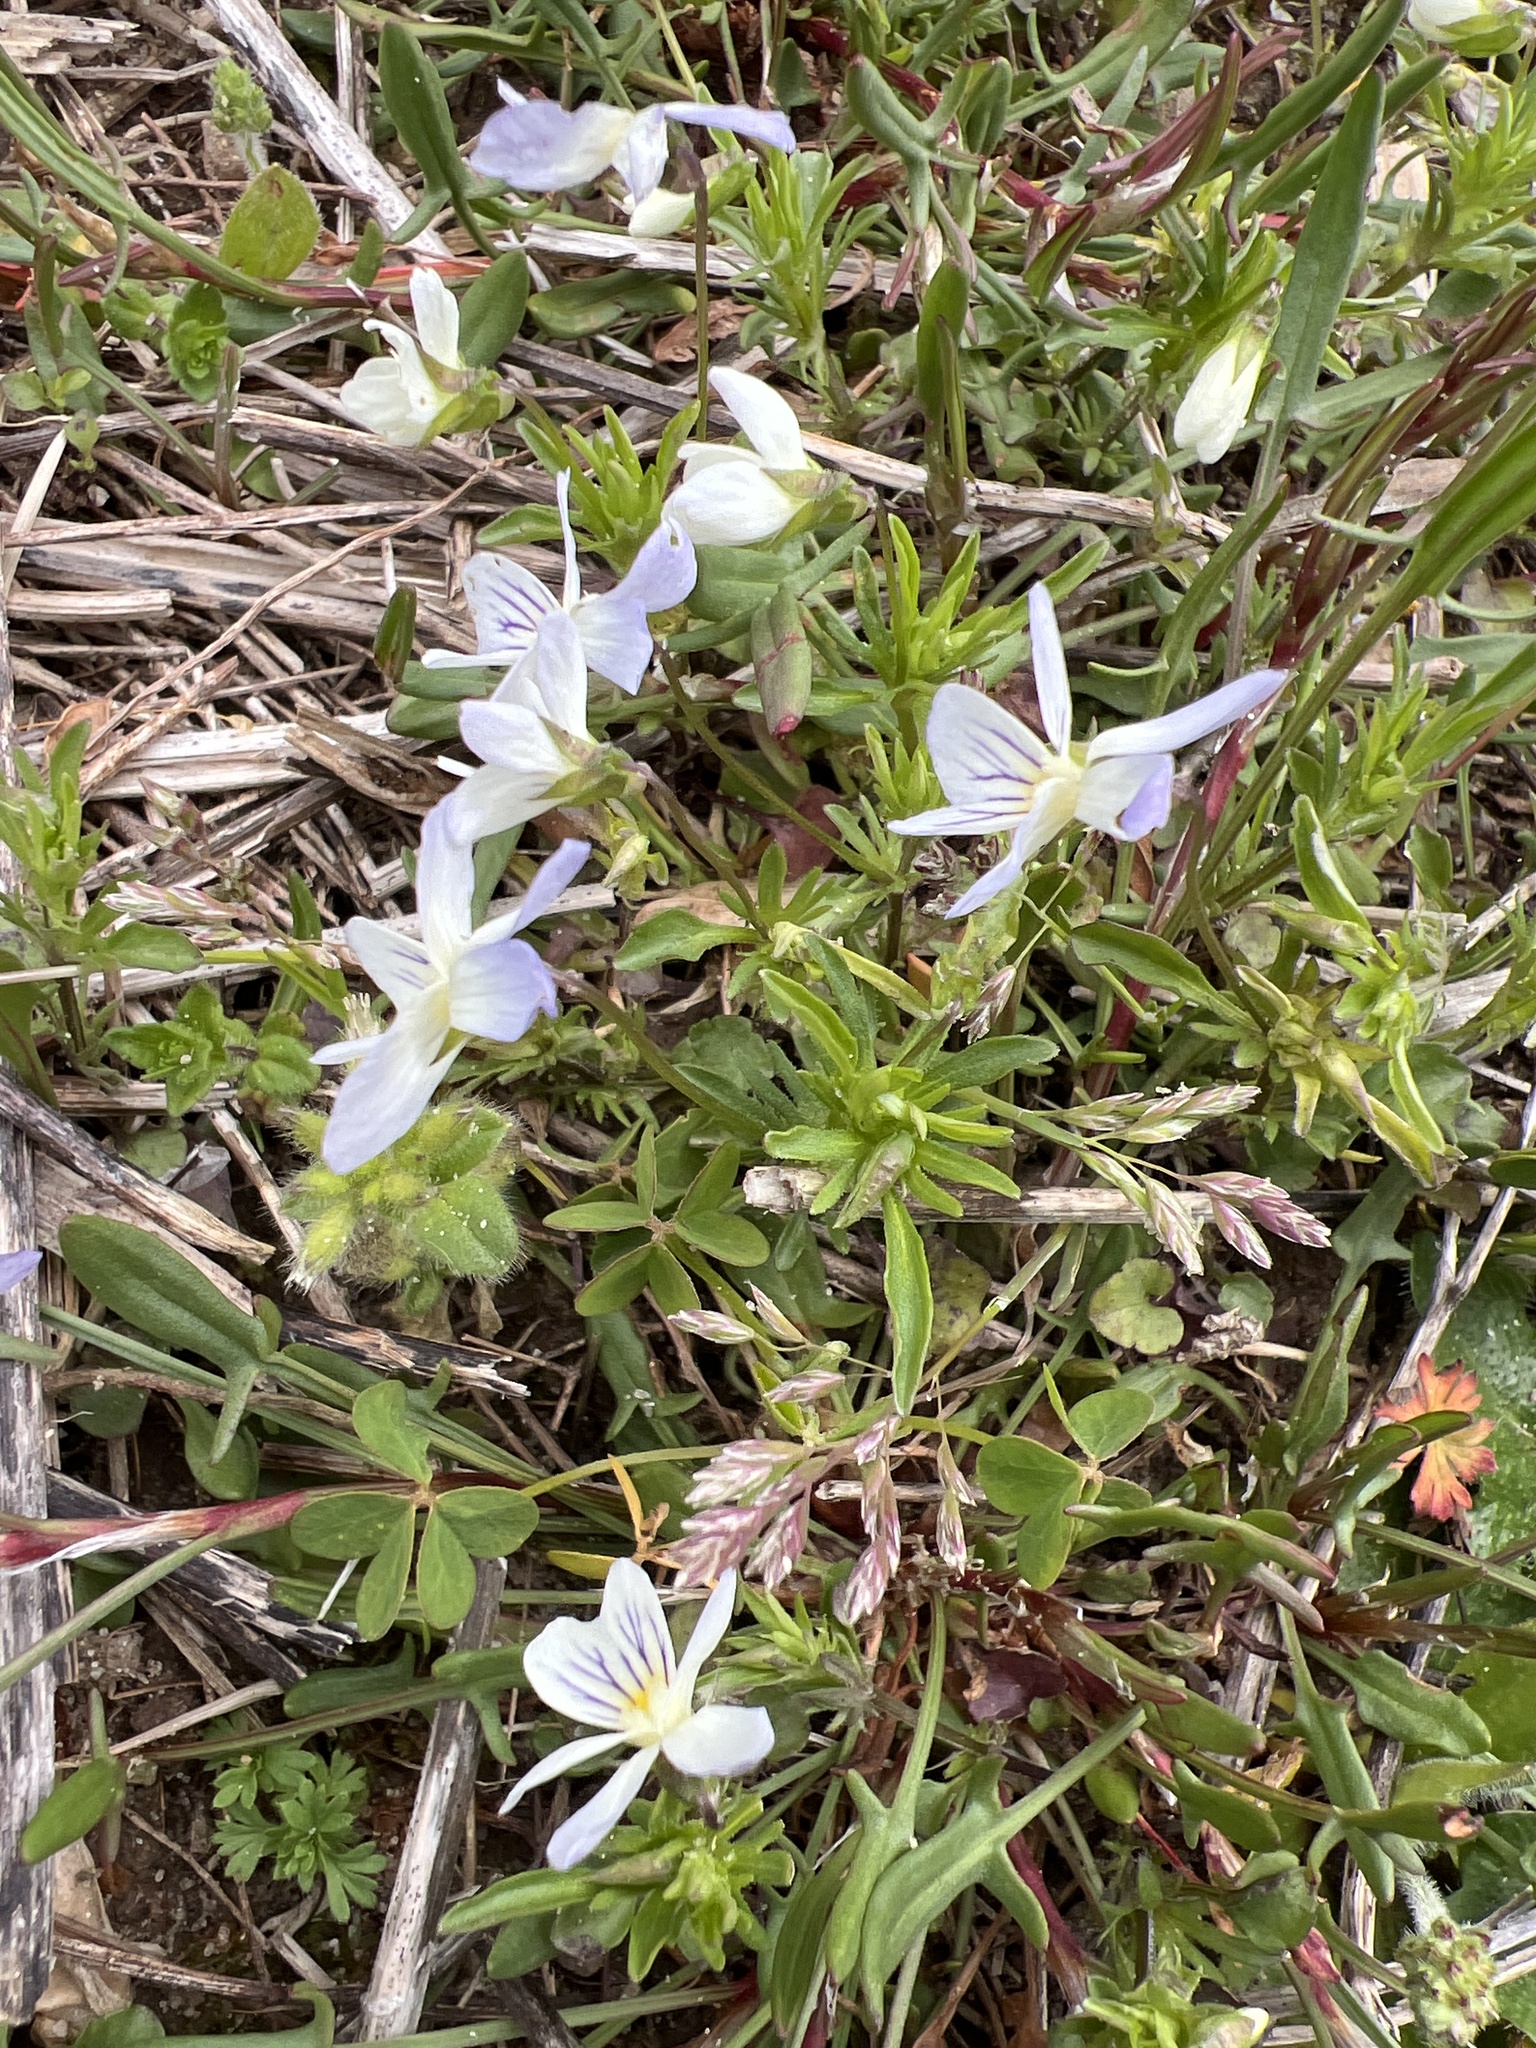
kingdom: Plantae
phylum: Tracheophyta
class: Magnoliopsida
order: Malpighiales
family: Violaceae
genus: Viola
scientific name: Viola rafinesquei
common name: American field pansy
